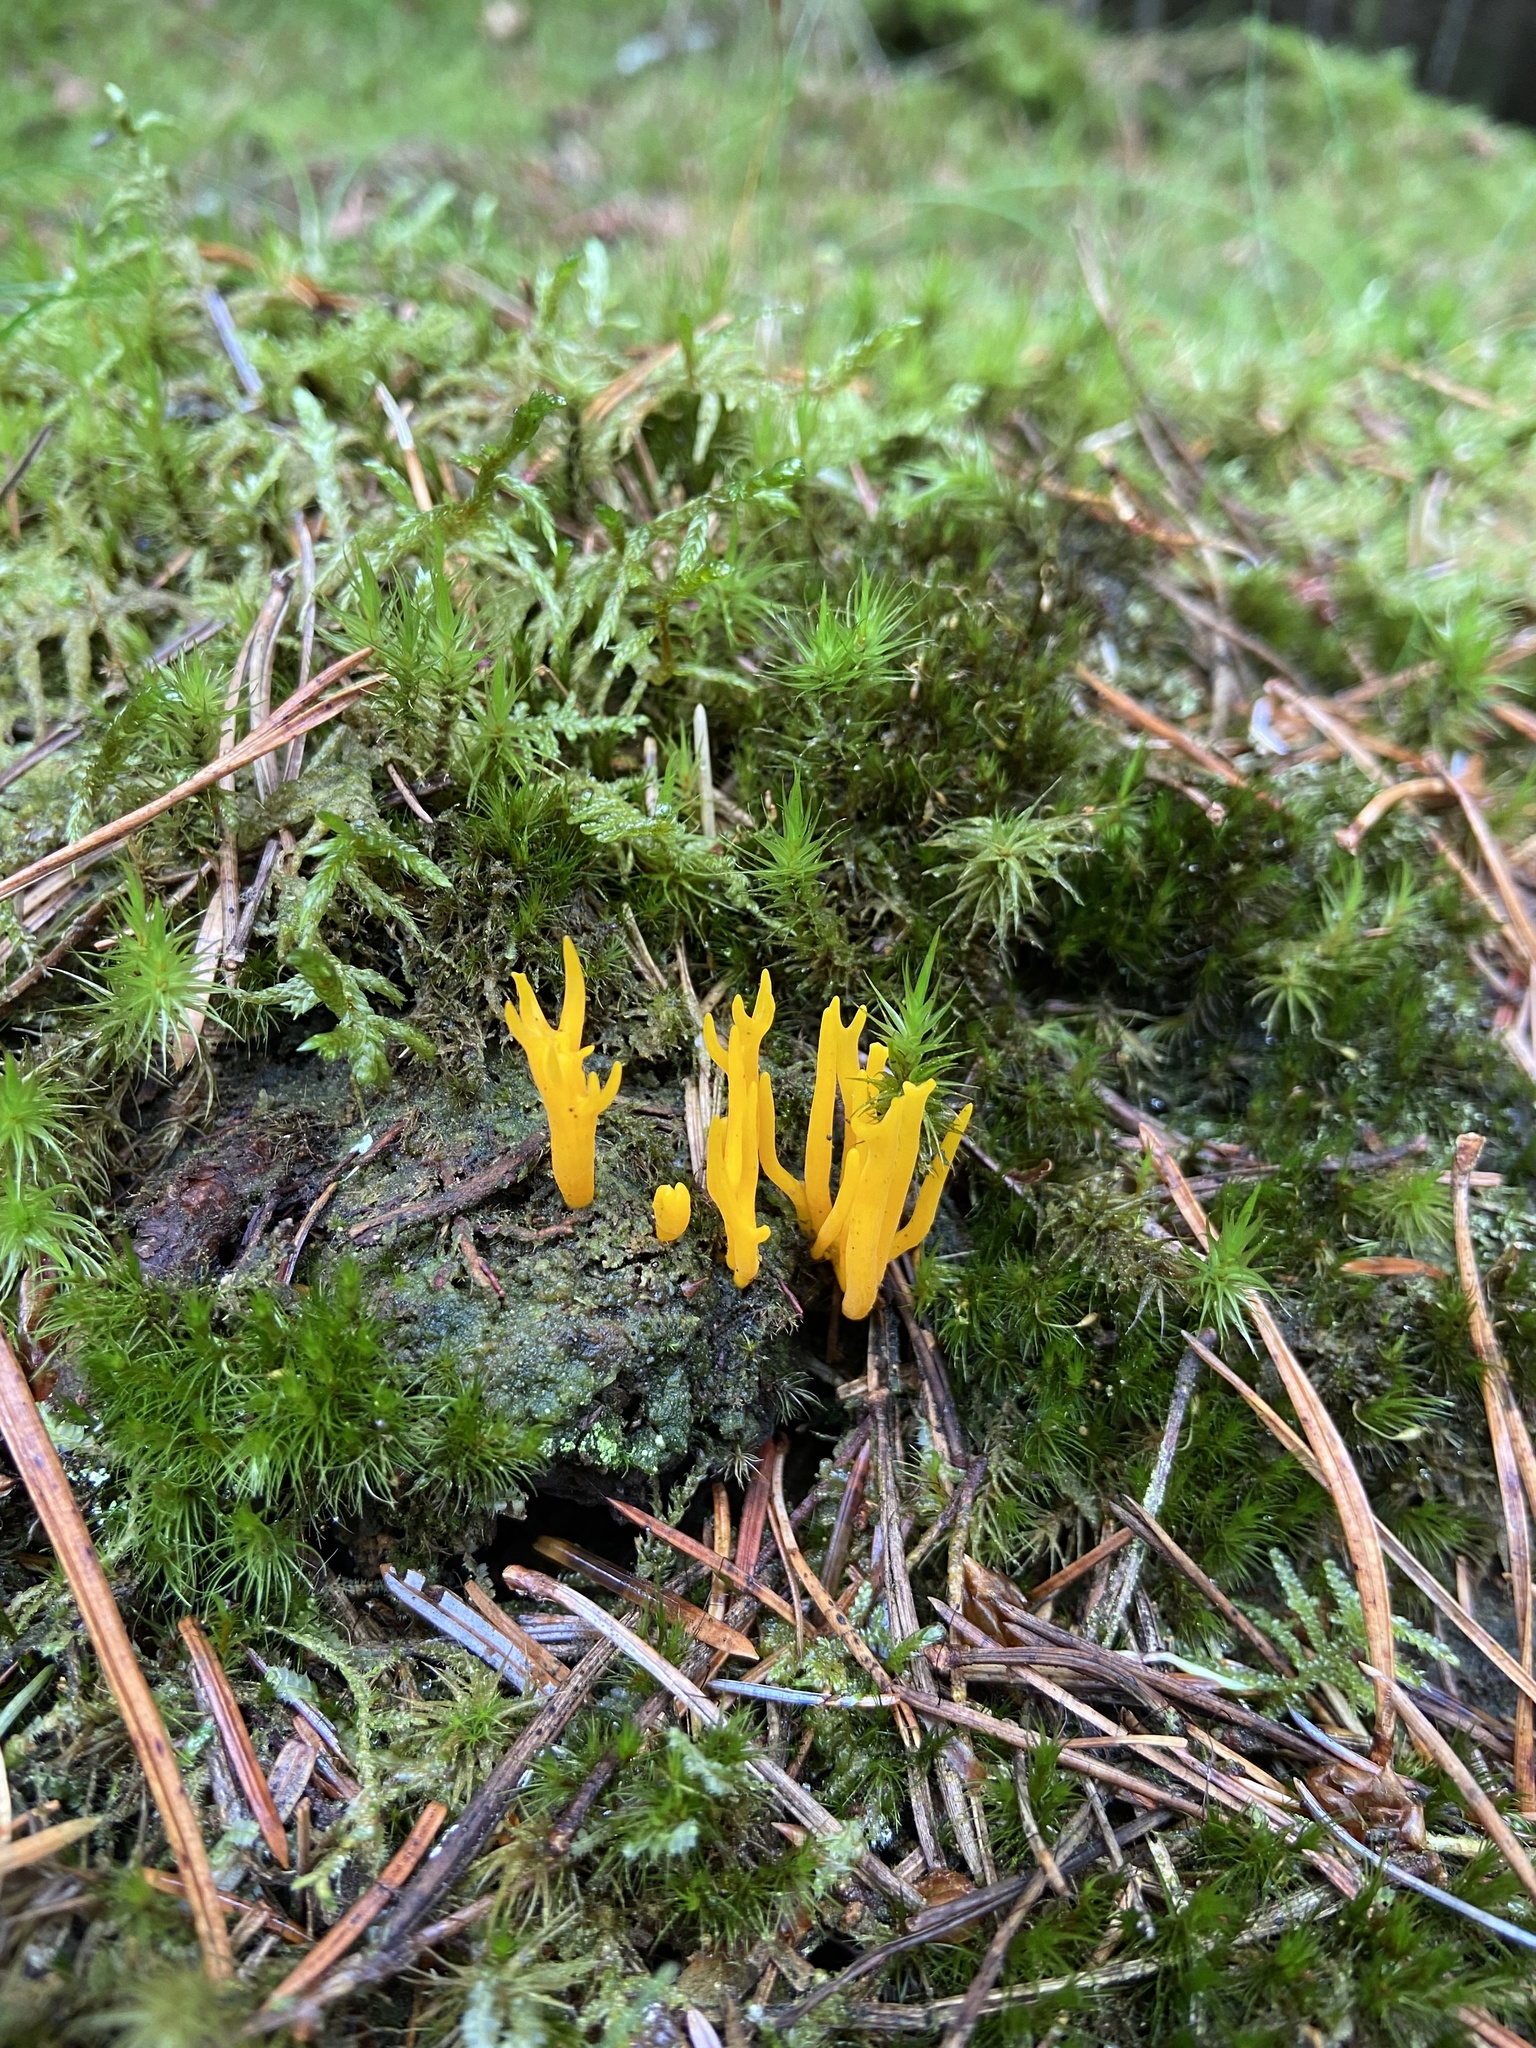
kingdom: Fungi
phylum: Basidiomycota
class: Dacrymycetes
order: Dacrymycetales
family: Dacrymycetaceae
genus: Calocera
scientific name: Calocera viscosa
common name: Yellow stagshorn
